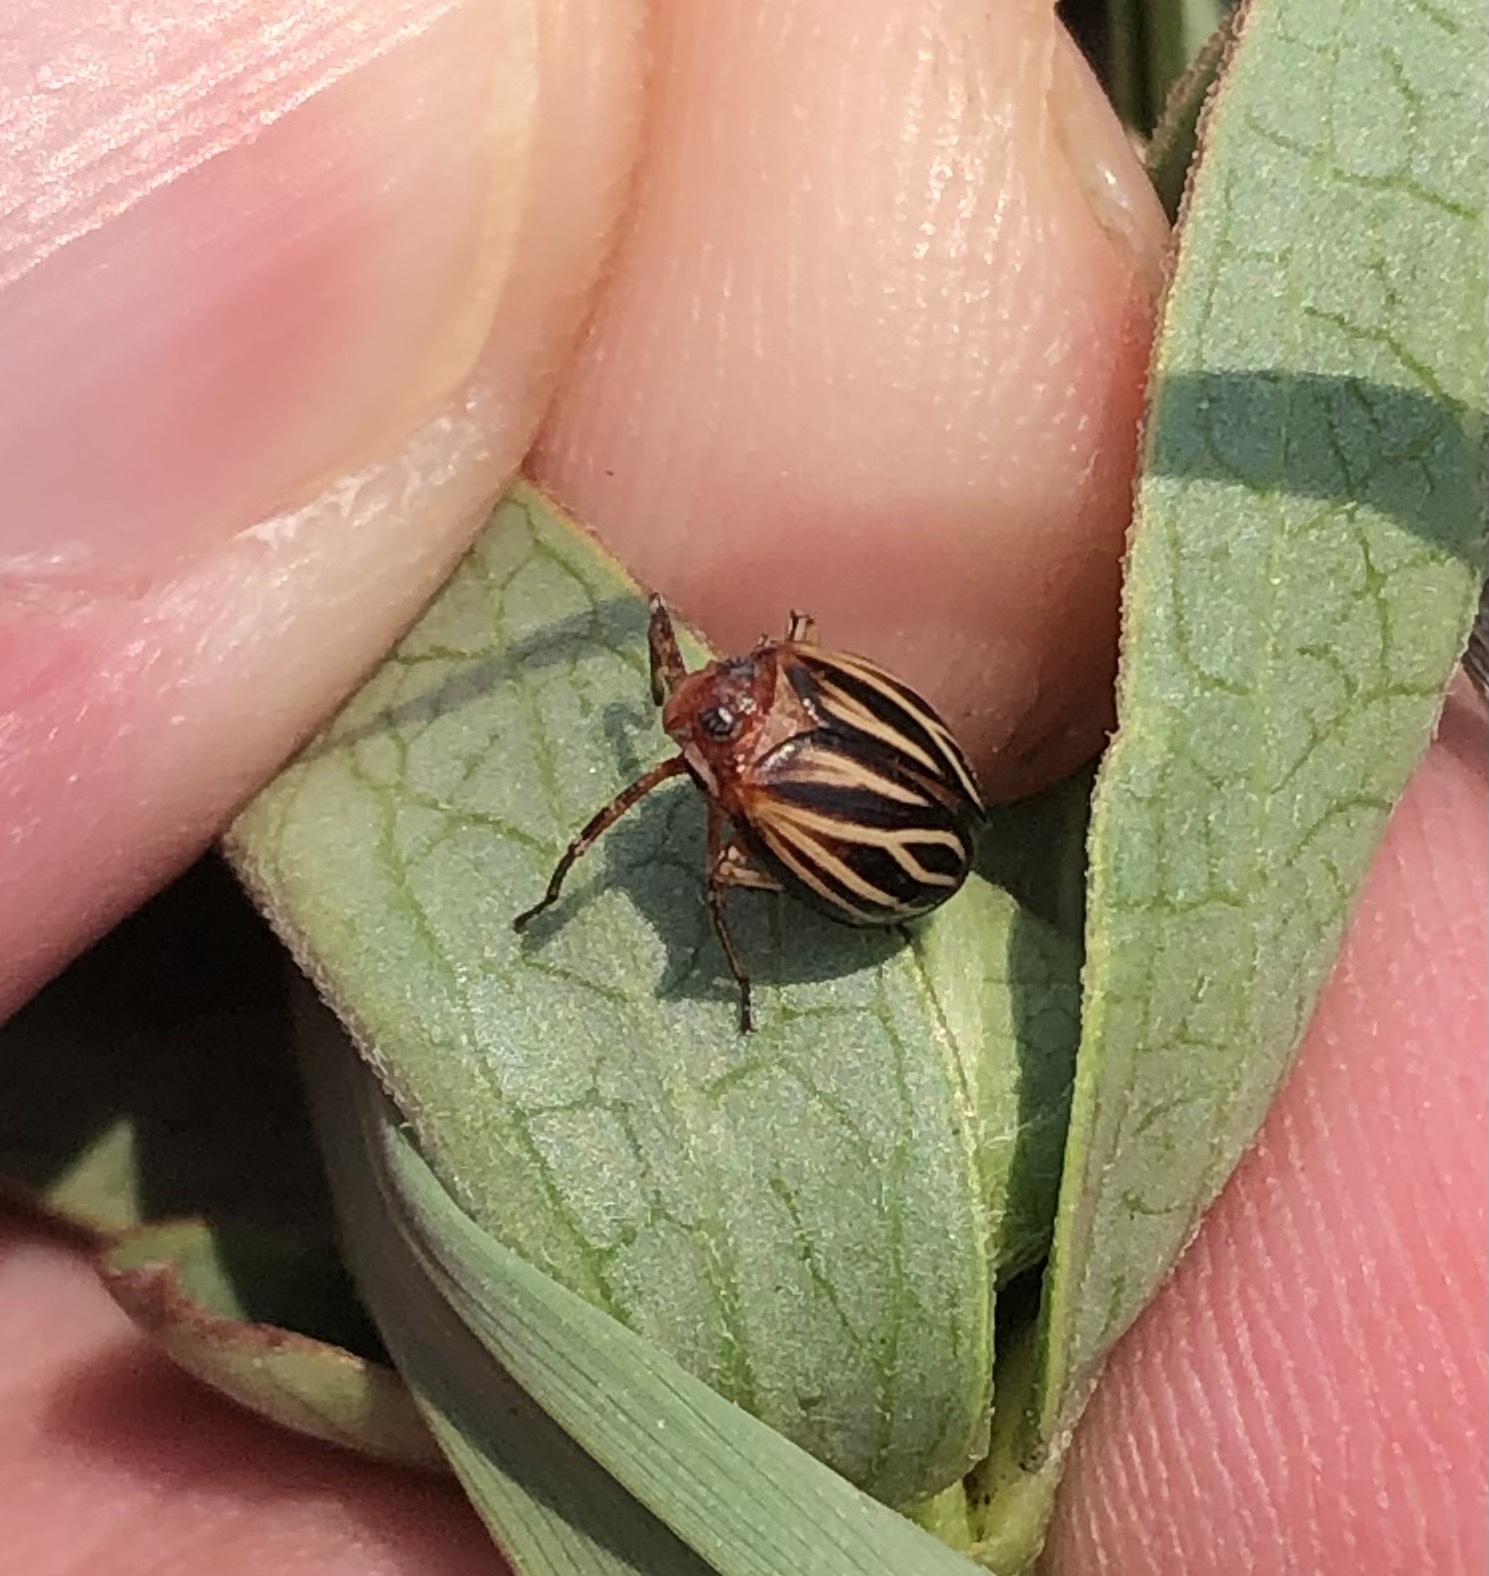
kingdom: Animalia
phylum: Arthropoda
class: Insecta
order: Hemiptera
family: Achilidae
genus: Isodaemon
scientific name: Isodaemon orontes
